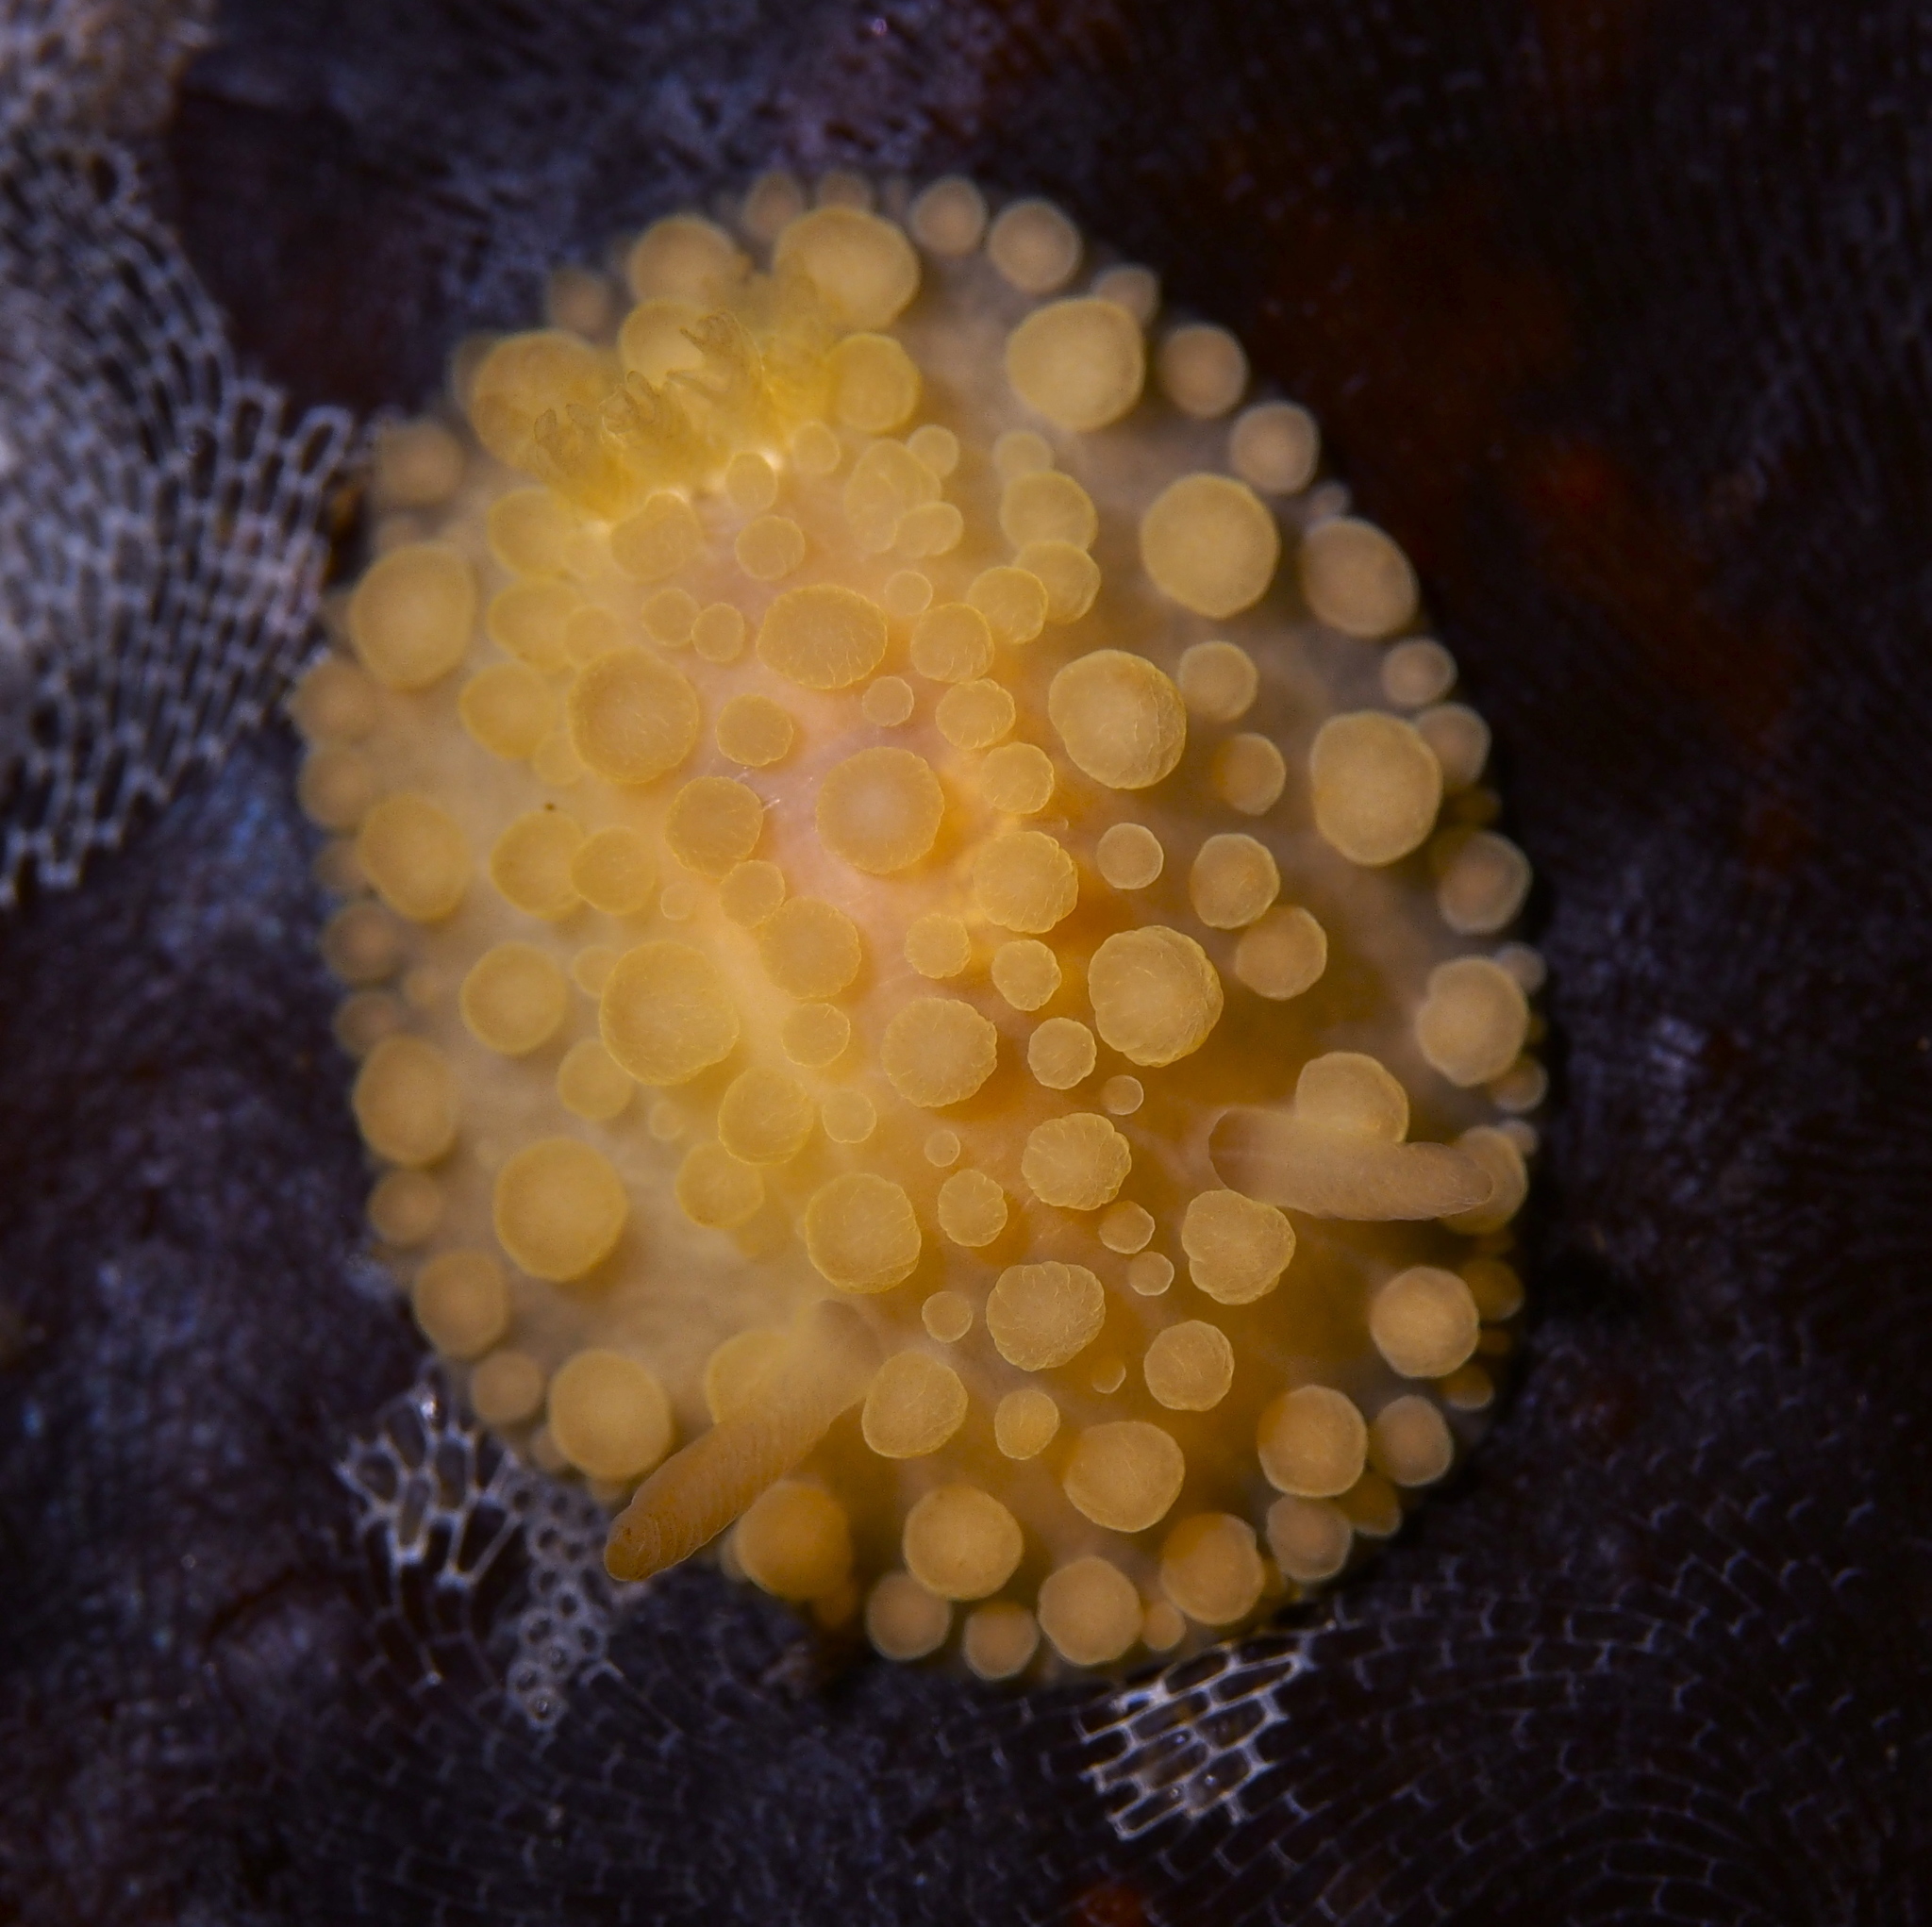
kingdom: Animalia
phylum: Mollusca
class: Gastropoda
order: Nudibranchia
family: Onchidorididae
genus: Adalaria
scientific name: Adalaria loveni
